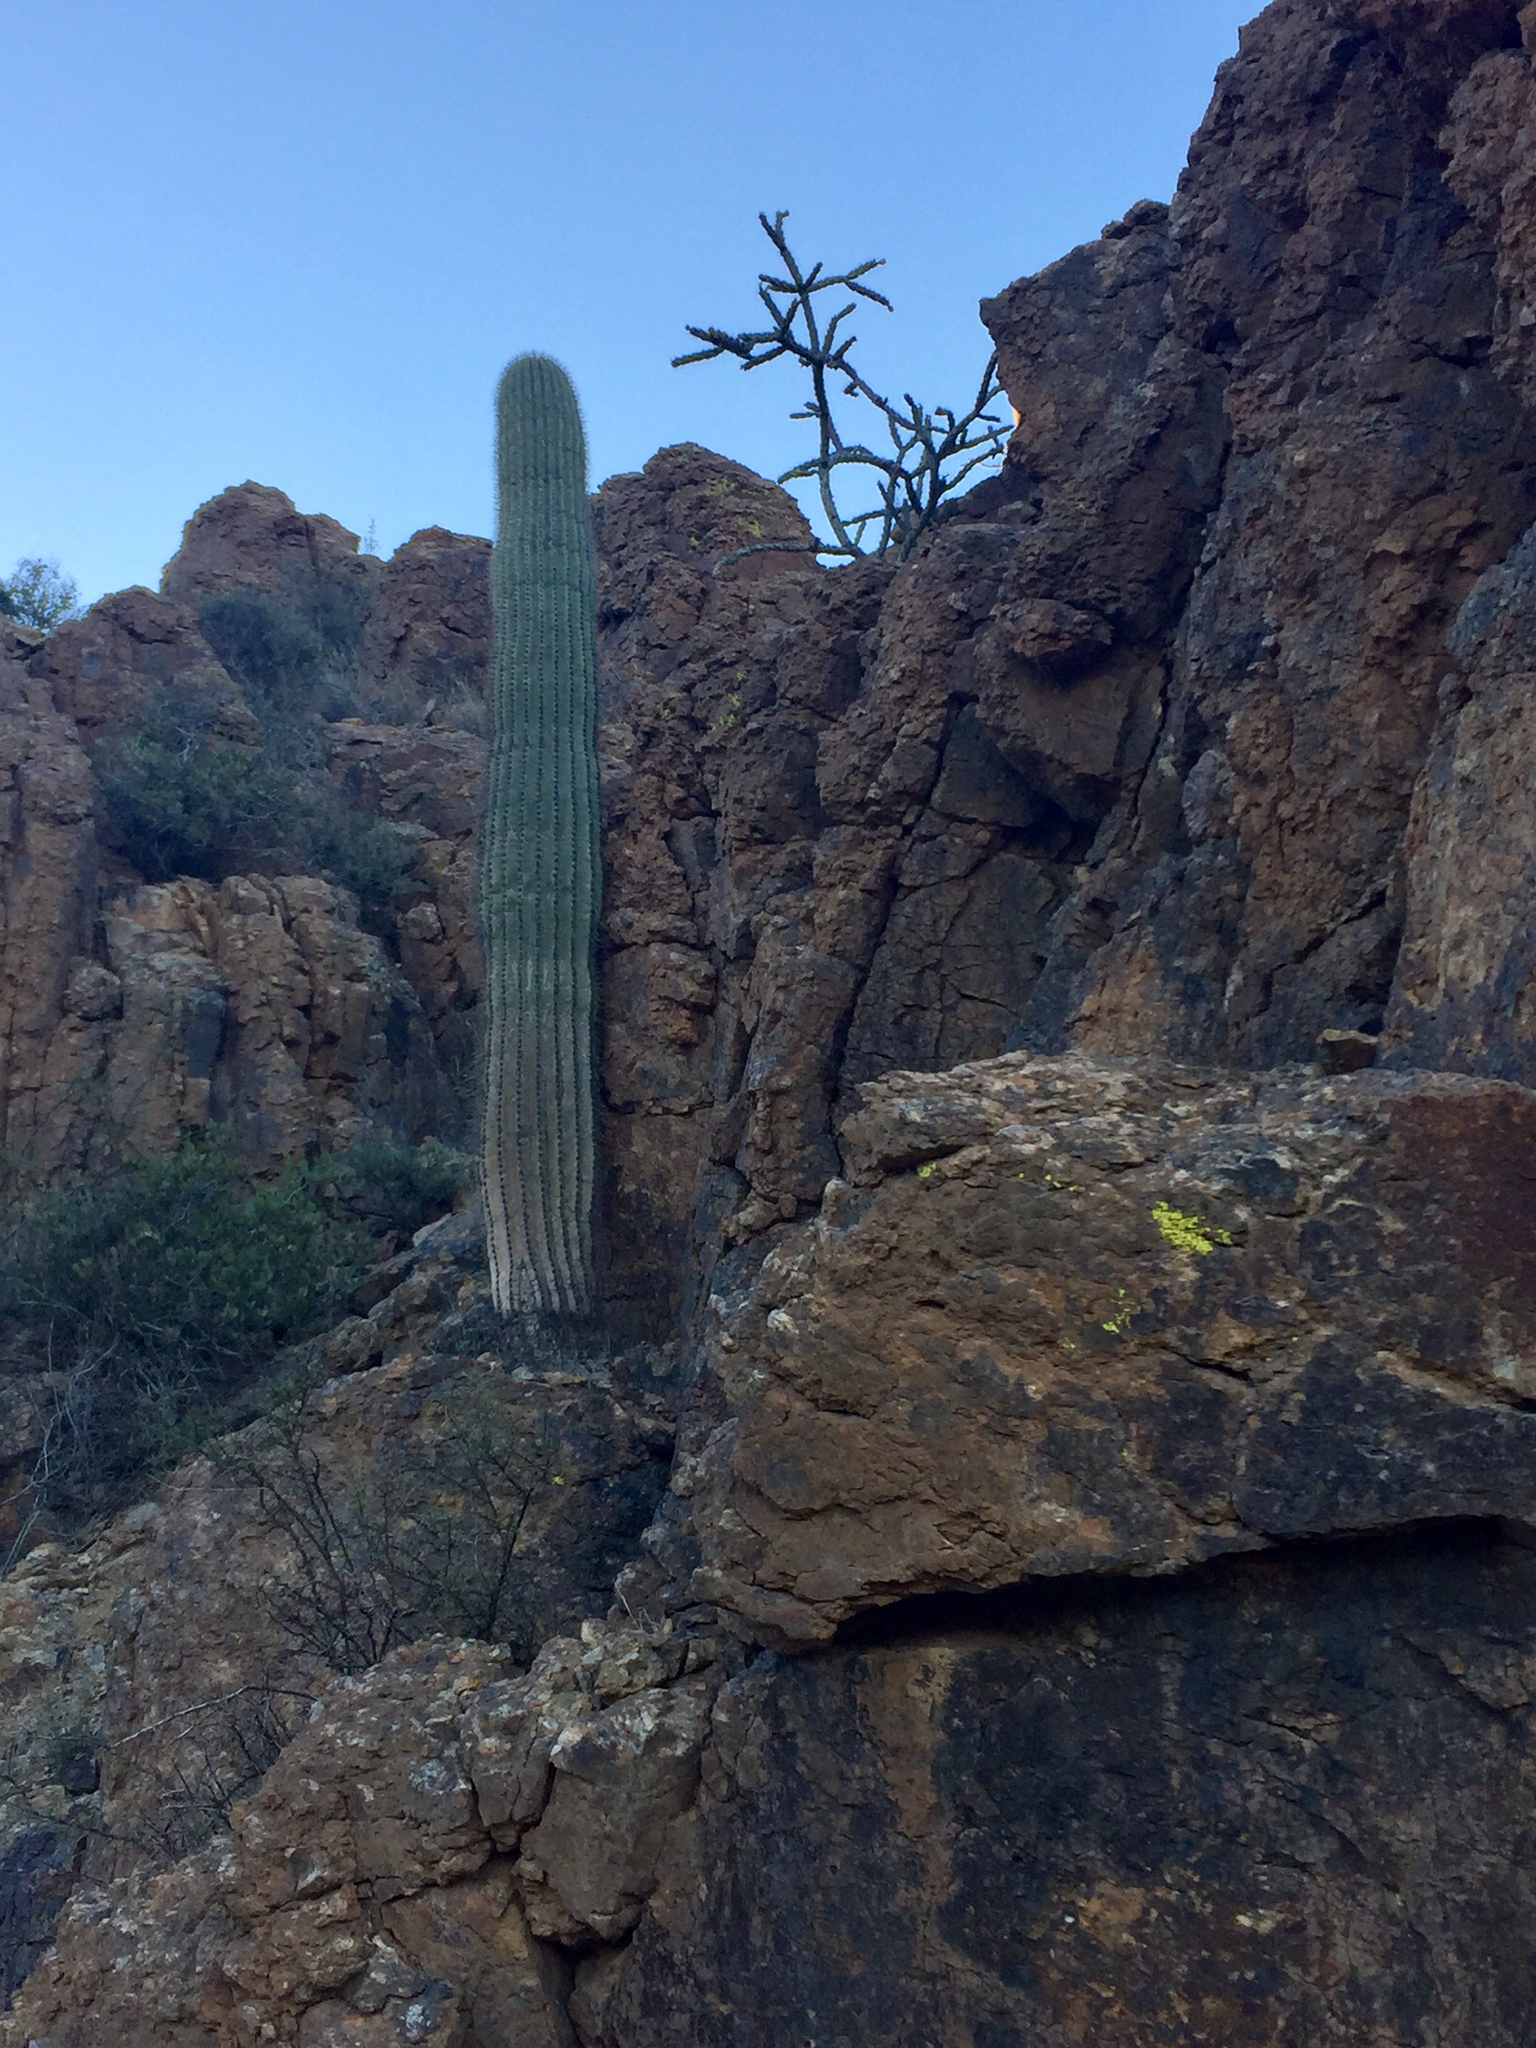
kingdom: Plantae
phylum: Tracheophyta
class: Magnoliopsida
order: Caryophyllales
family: Cactaceae
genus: Carnegiea
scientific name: Carnegiea gigantea
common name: Saguaro
